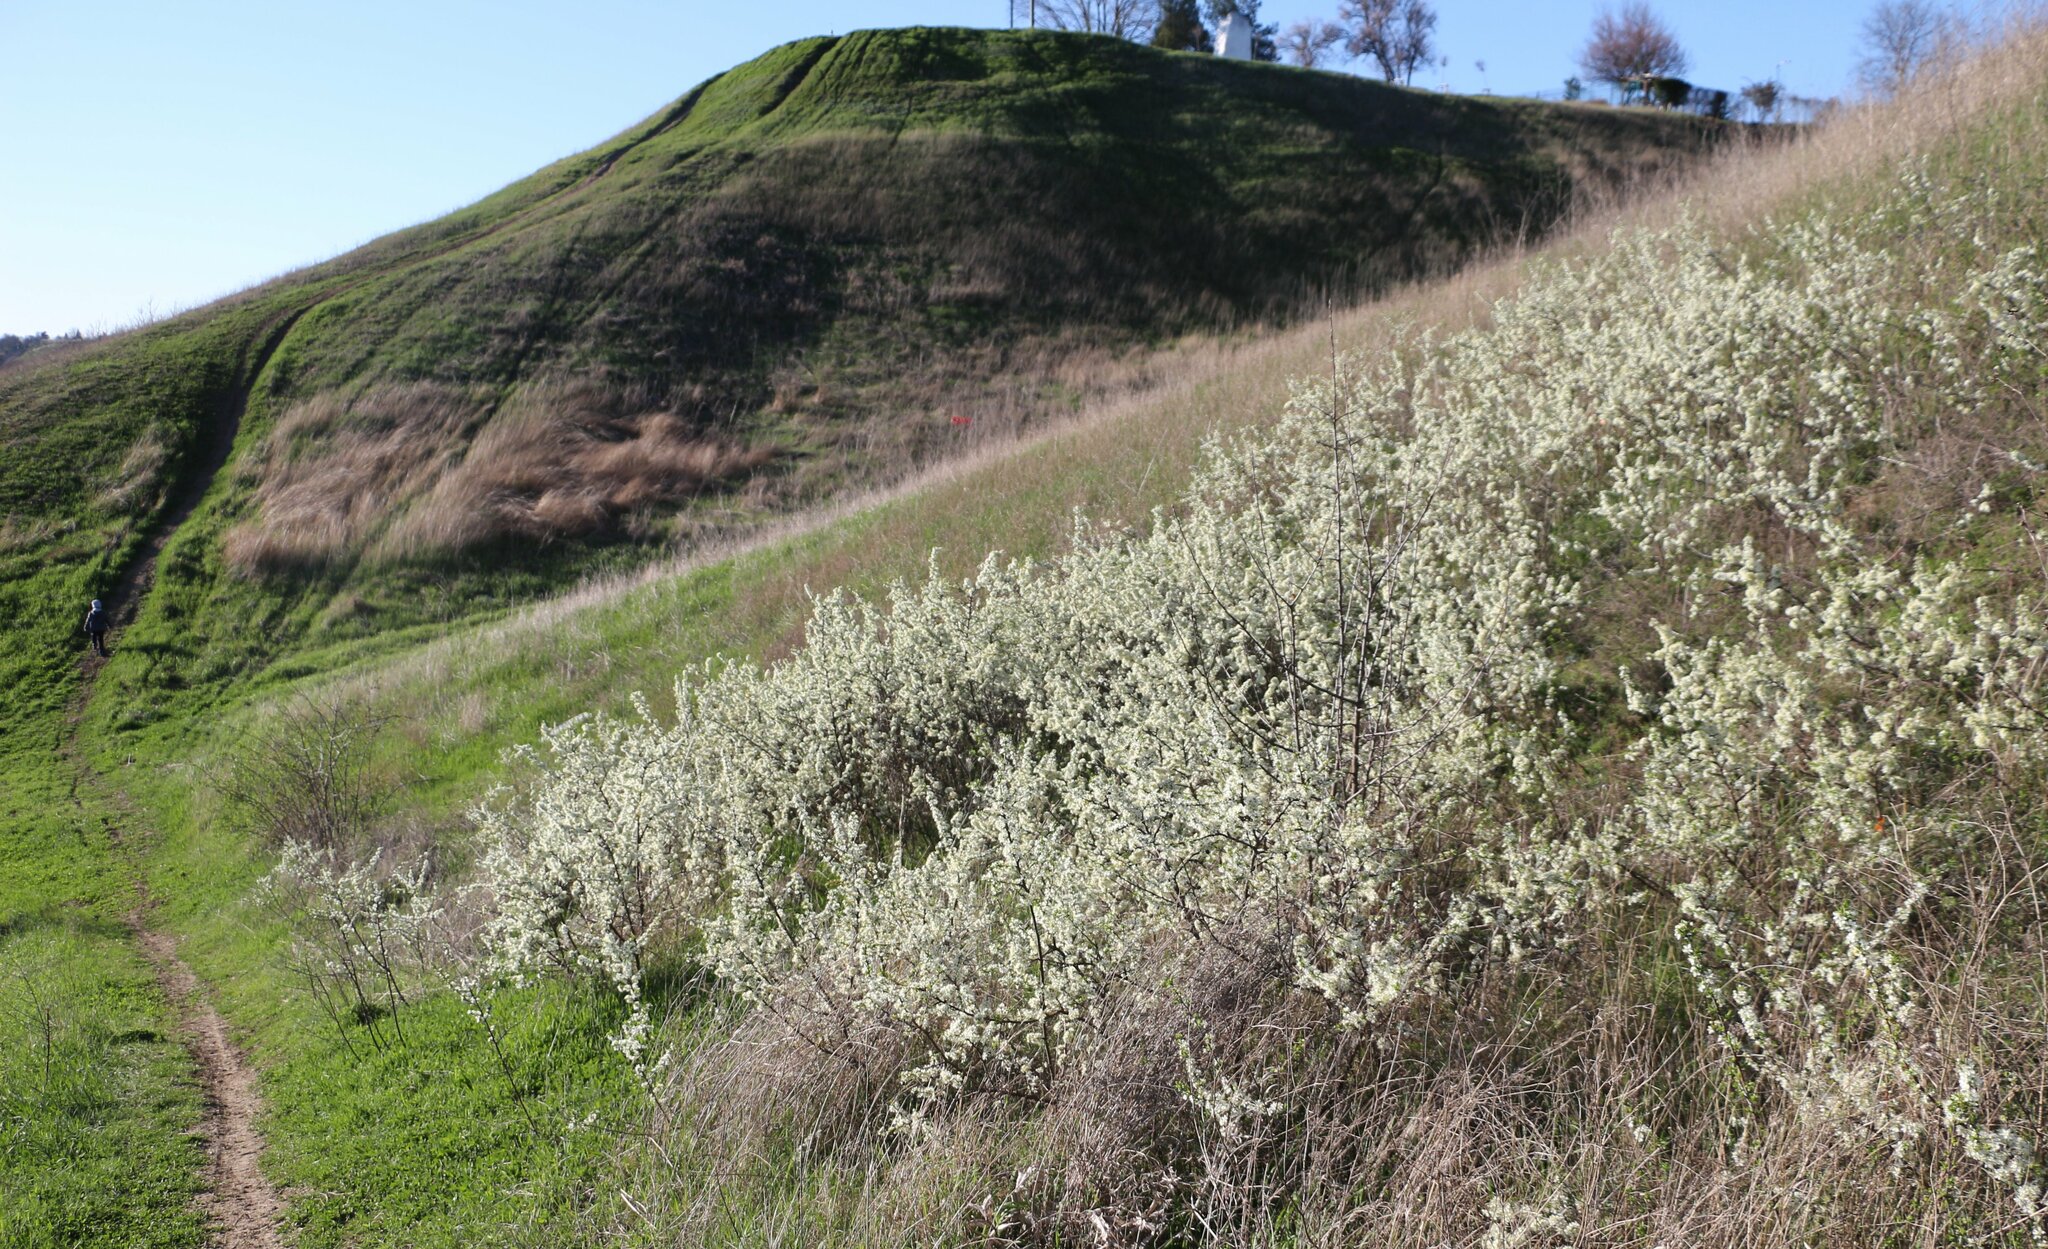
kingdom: Plantae
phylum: Tracheophyta
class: Magnoliopsida
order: Rosales
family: Rosaceae
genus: Prunus
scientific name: Prunus spinosa
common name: Blackthorn
